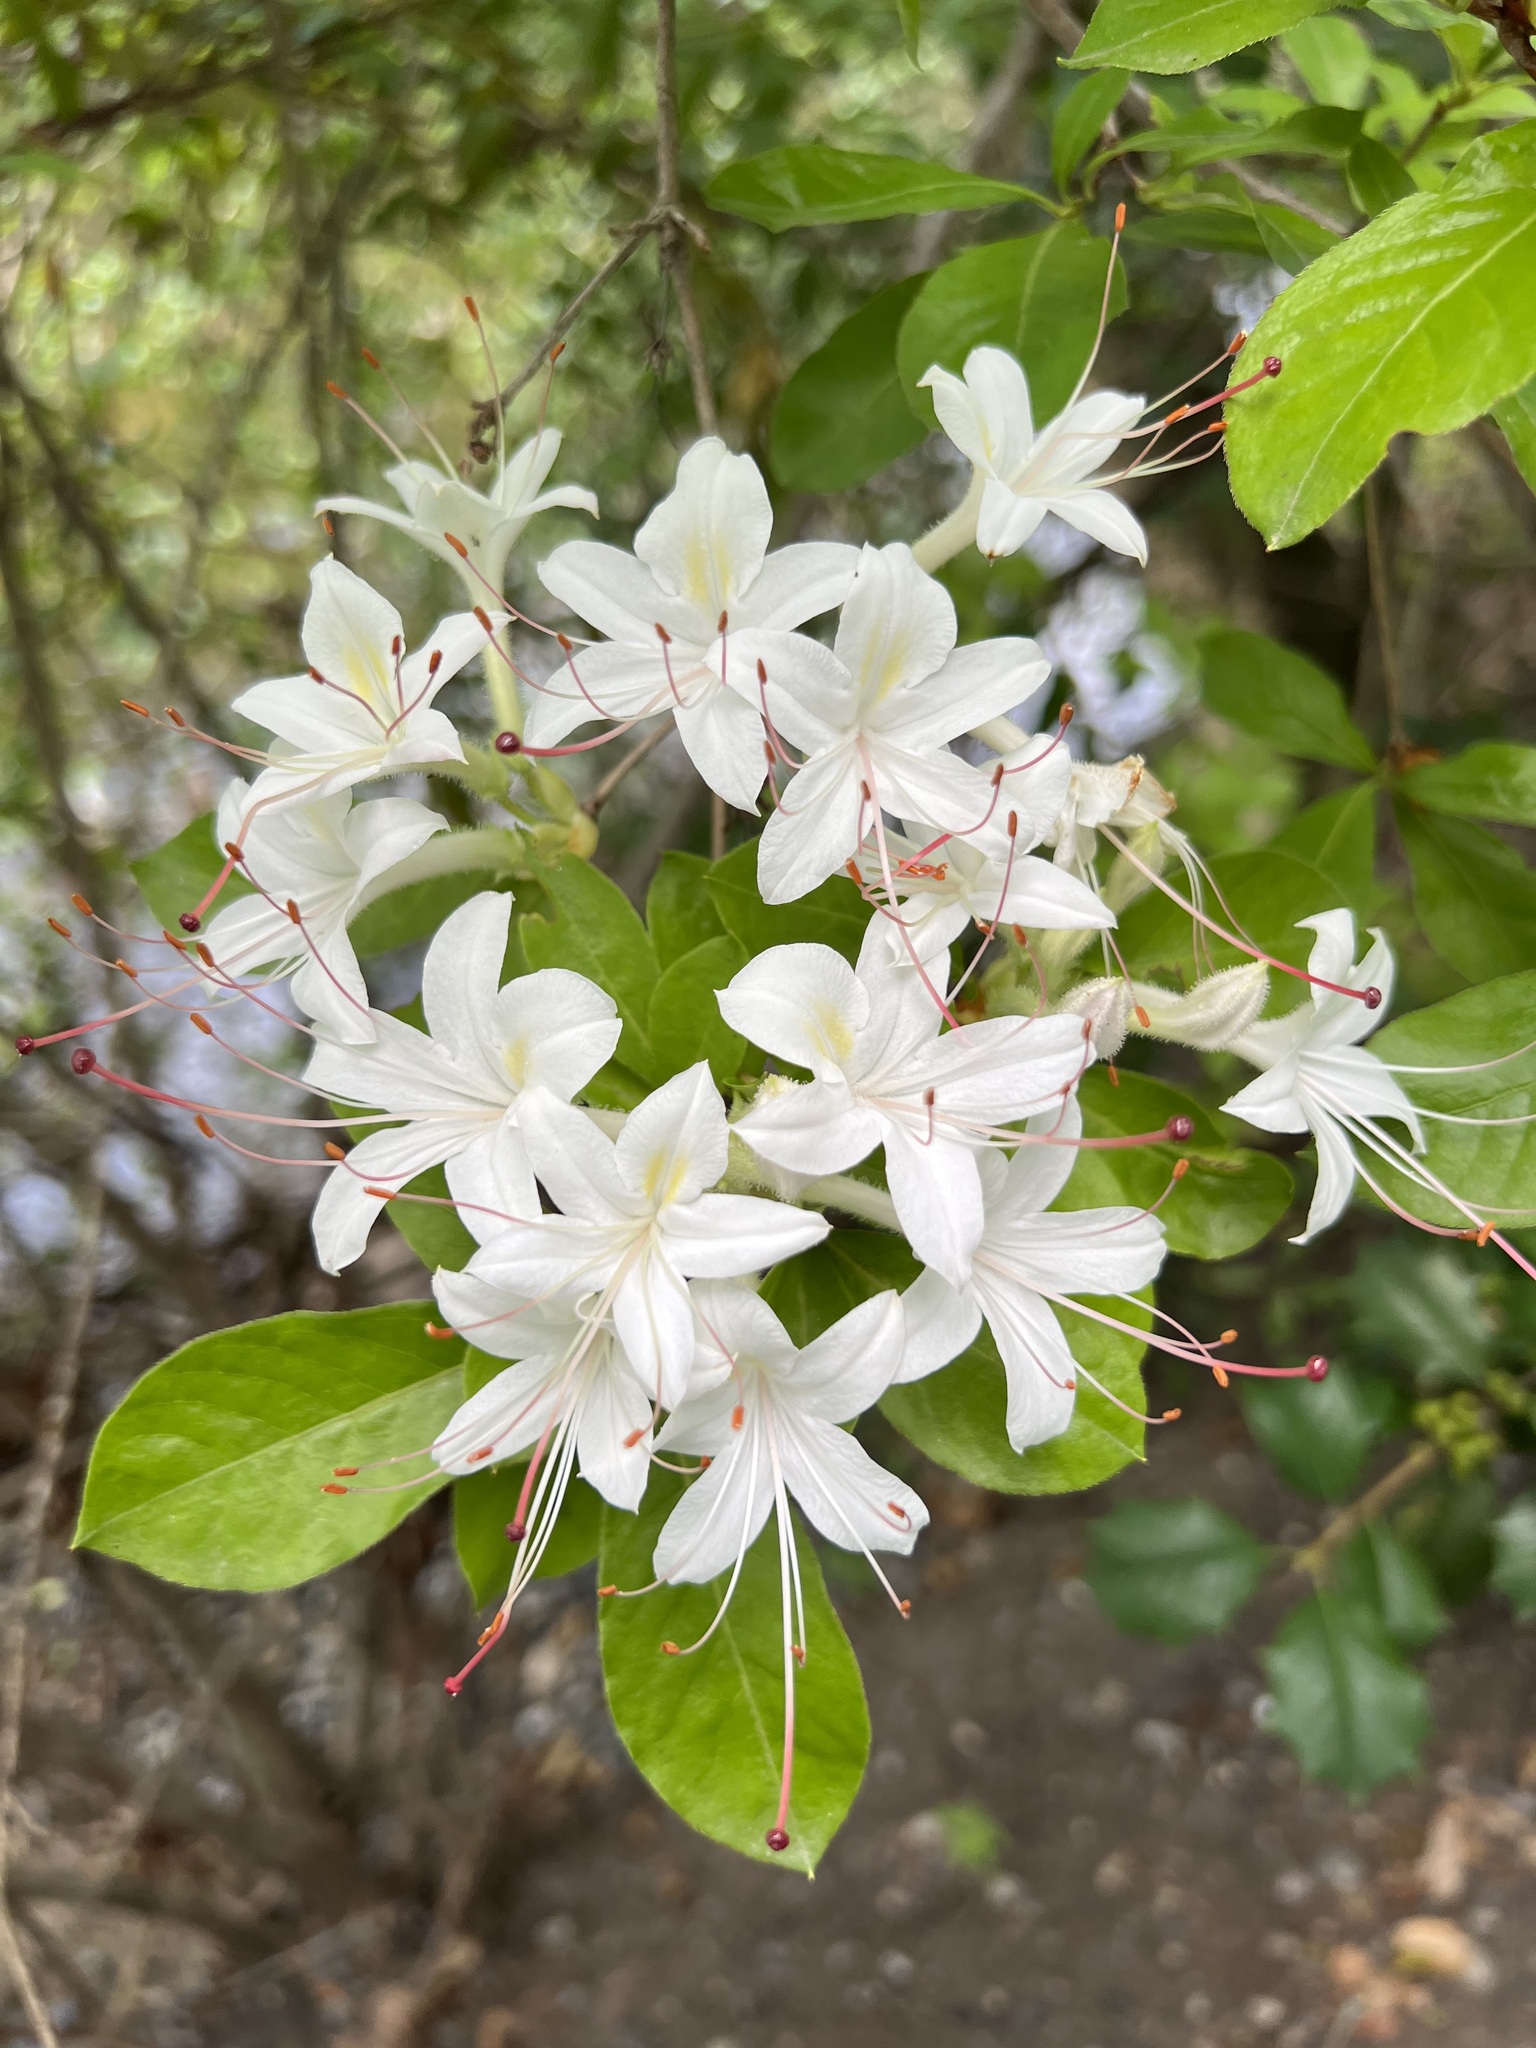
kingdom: Plantae
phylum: Tracheophyta
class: Magnoliopsida
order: Ericales
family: Ericaceae
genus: Rhododendron
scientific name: Rhododendron viscosum
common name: Clammy azalea
